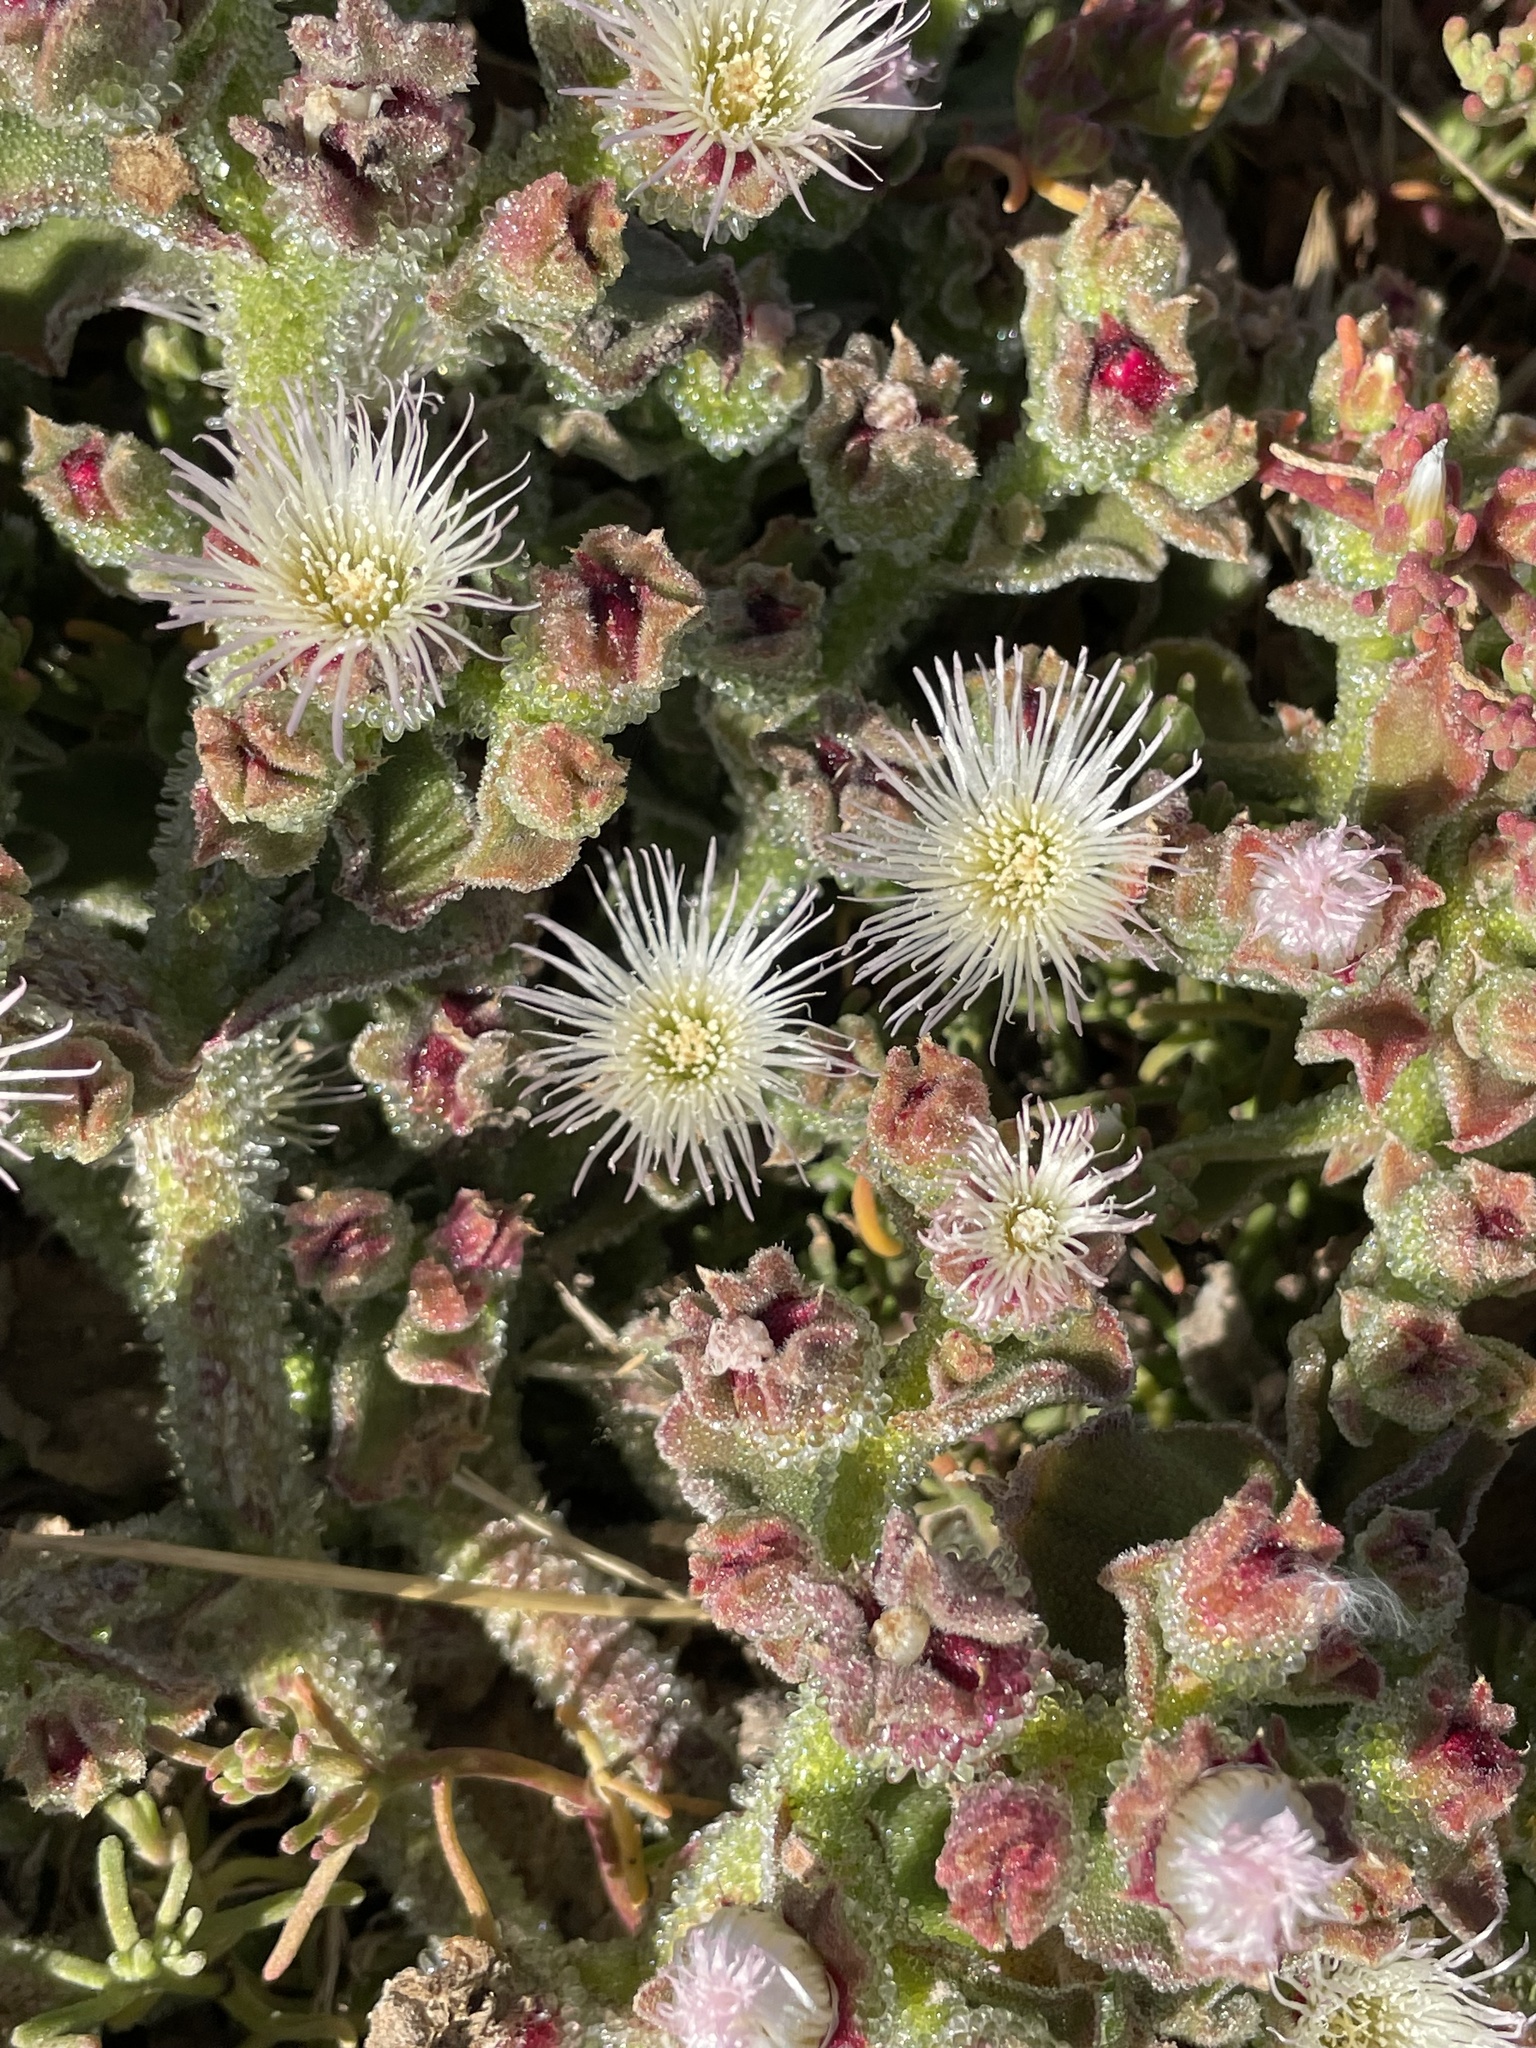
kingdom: Plantae
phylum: Tracheophyta
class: Magnoliopsida
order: Caryophyllales
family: Aizoaceae
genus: Mesembryanthemum
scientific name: Mesembryanthemum crystallinum
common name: Common iceplant
